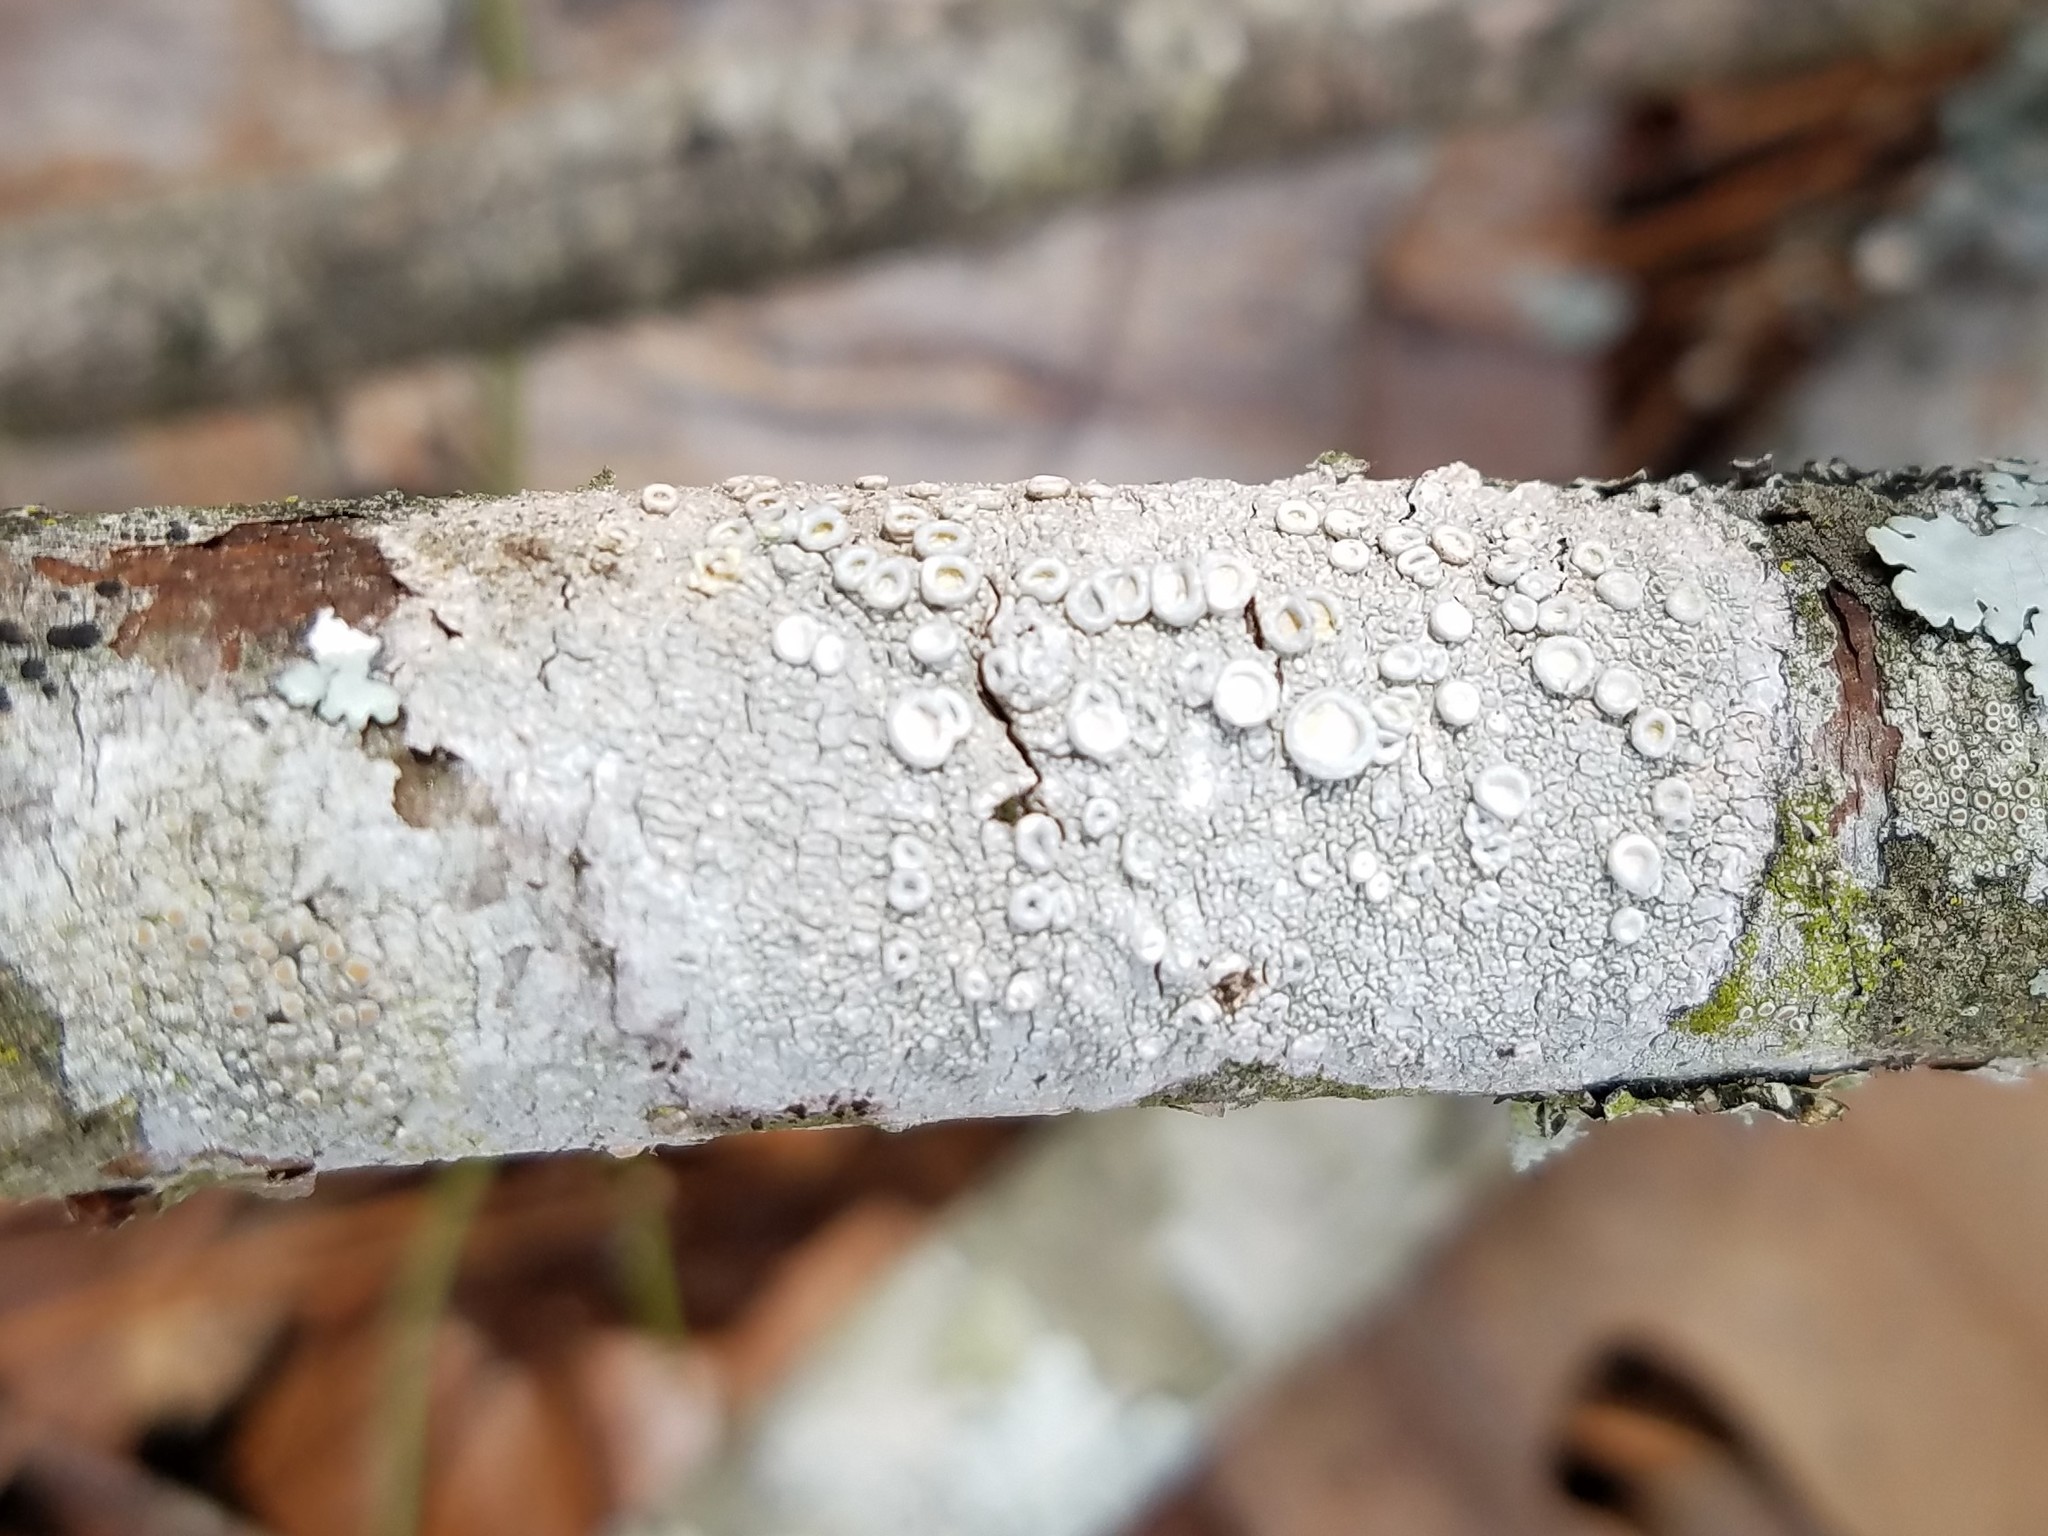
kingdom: Fungi
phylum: Ascomycota
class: Lecanoromycetes
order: Pertusariales
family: Ochrolechiaceae
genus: Ochrolechia
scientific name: Ochrolechia africana
